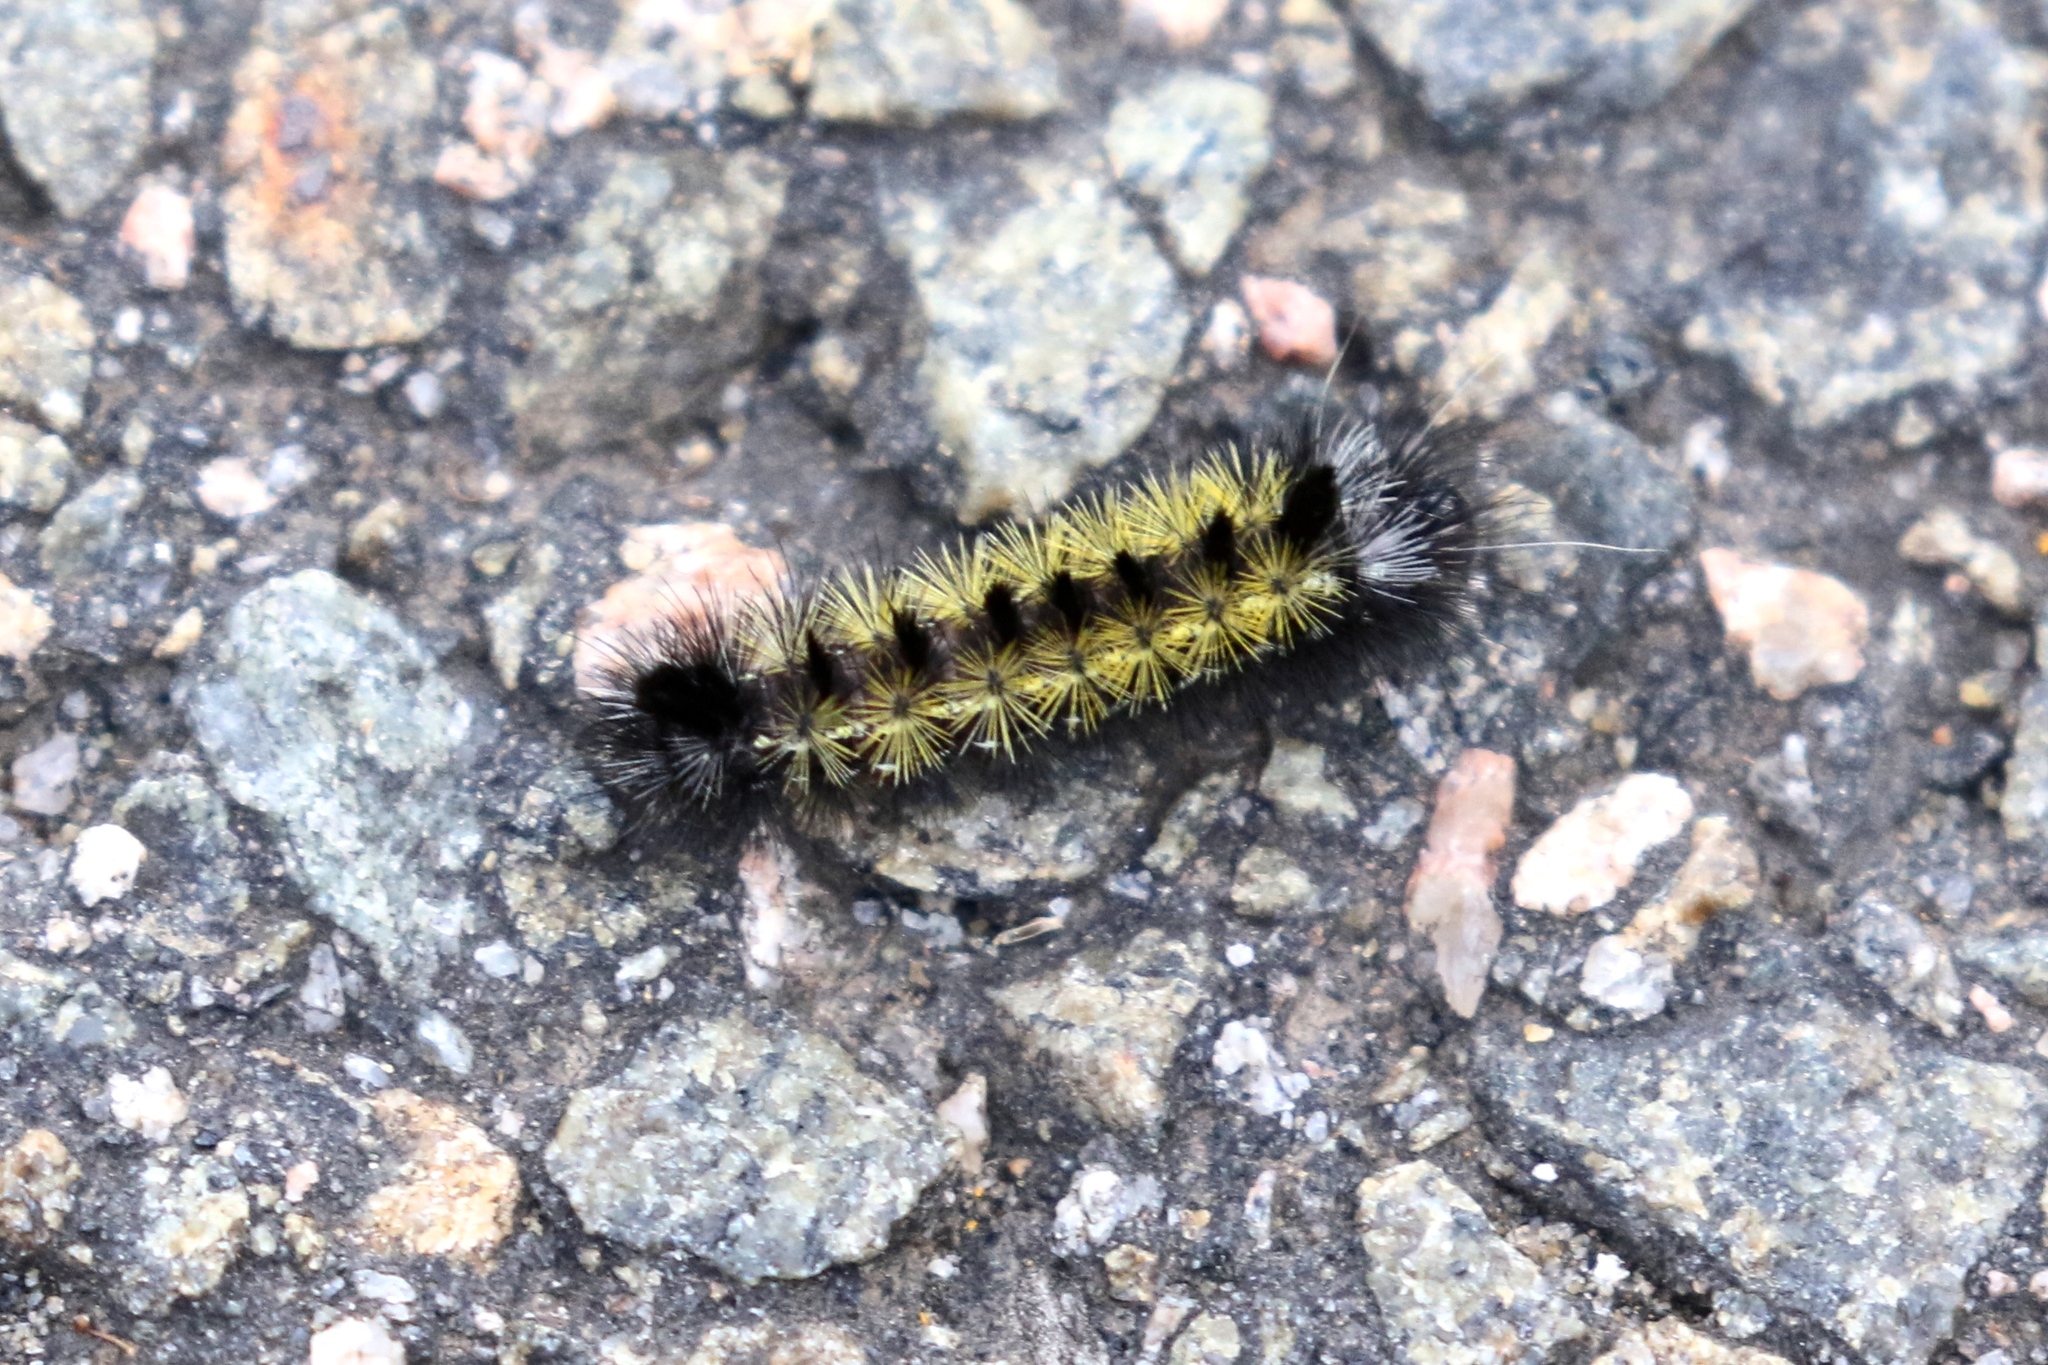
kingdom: Animalia
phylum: Arthropoda
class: Insecta
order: Lepidoptera
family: Erebidae
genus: Ctenucha
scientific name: Ctenucha virginica
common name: Virginia ctenucha moth
